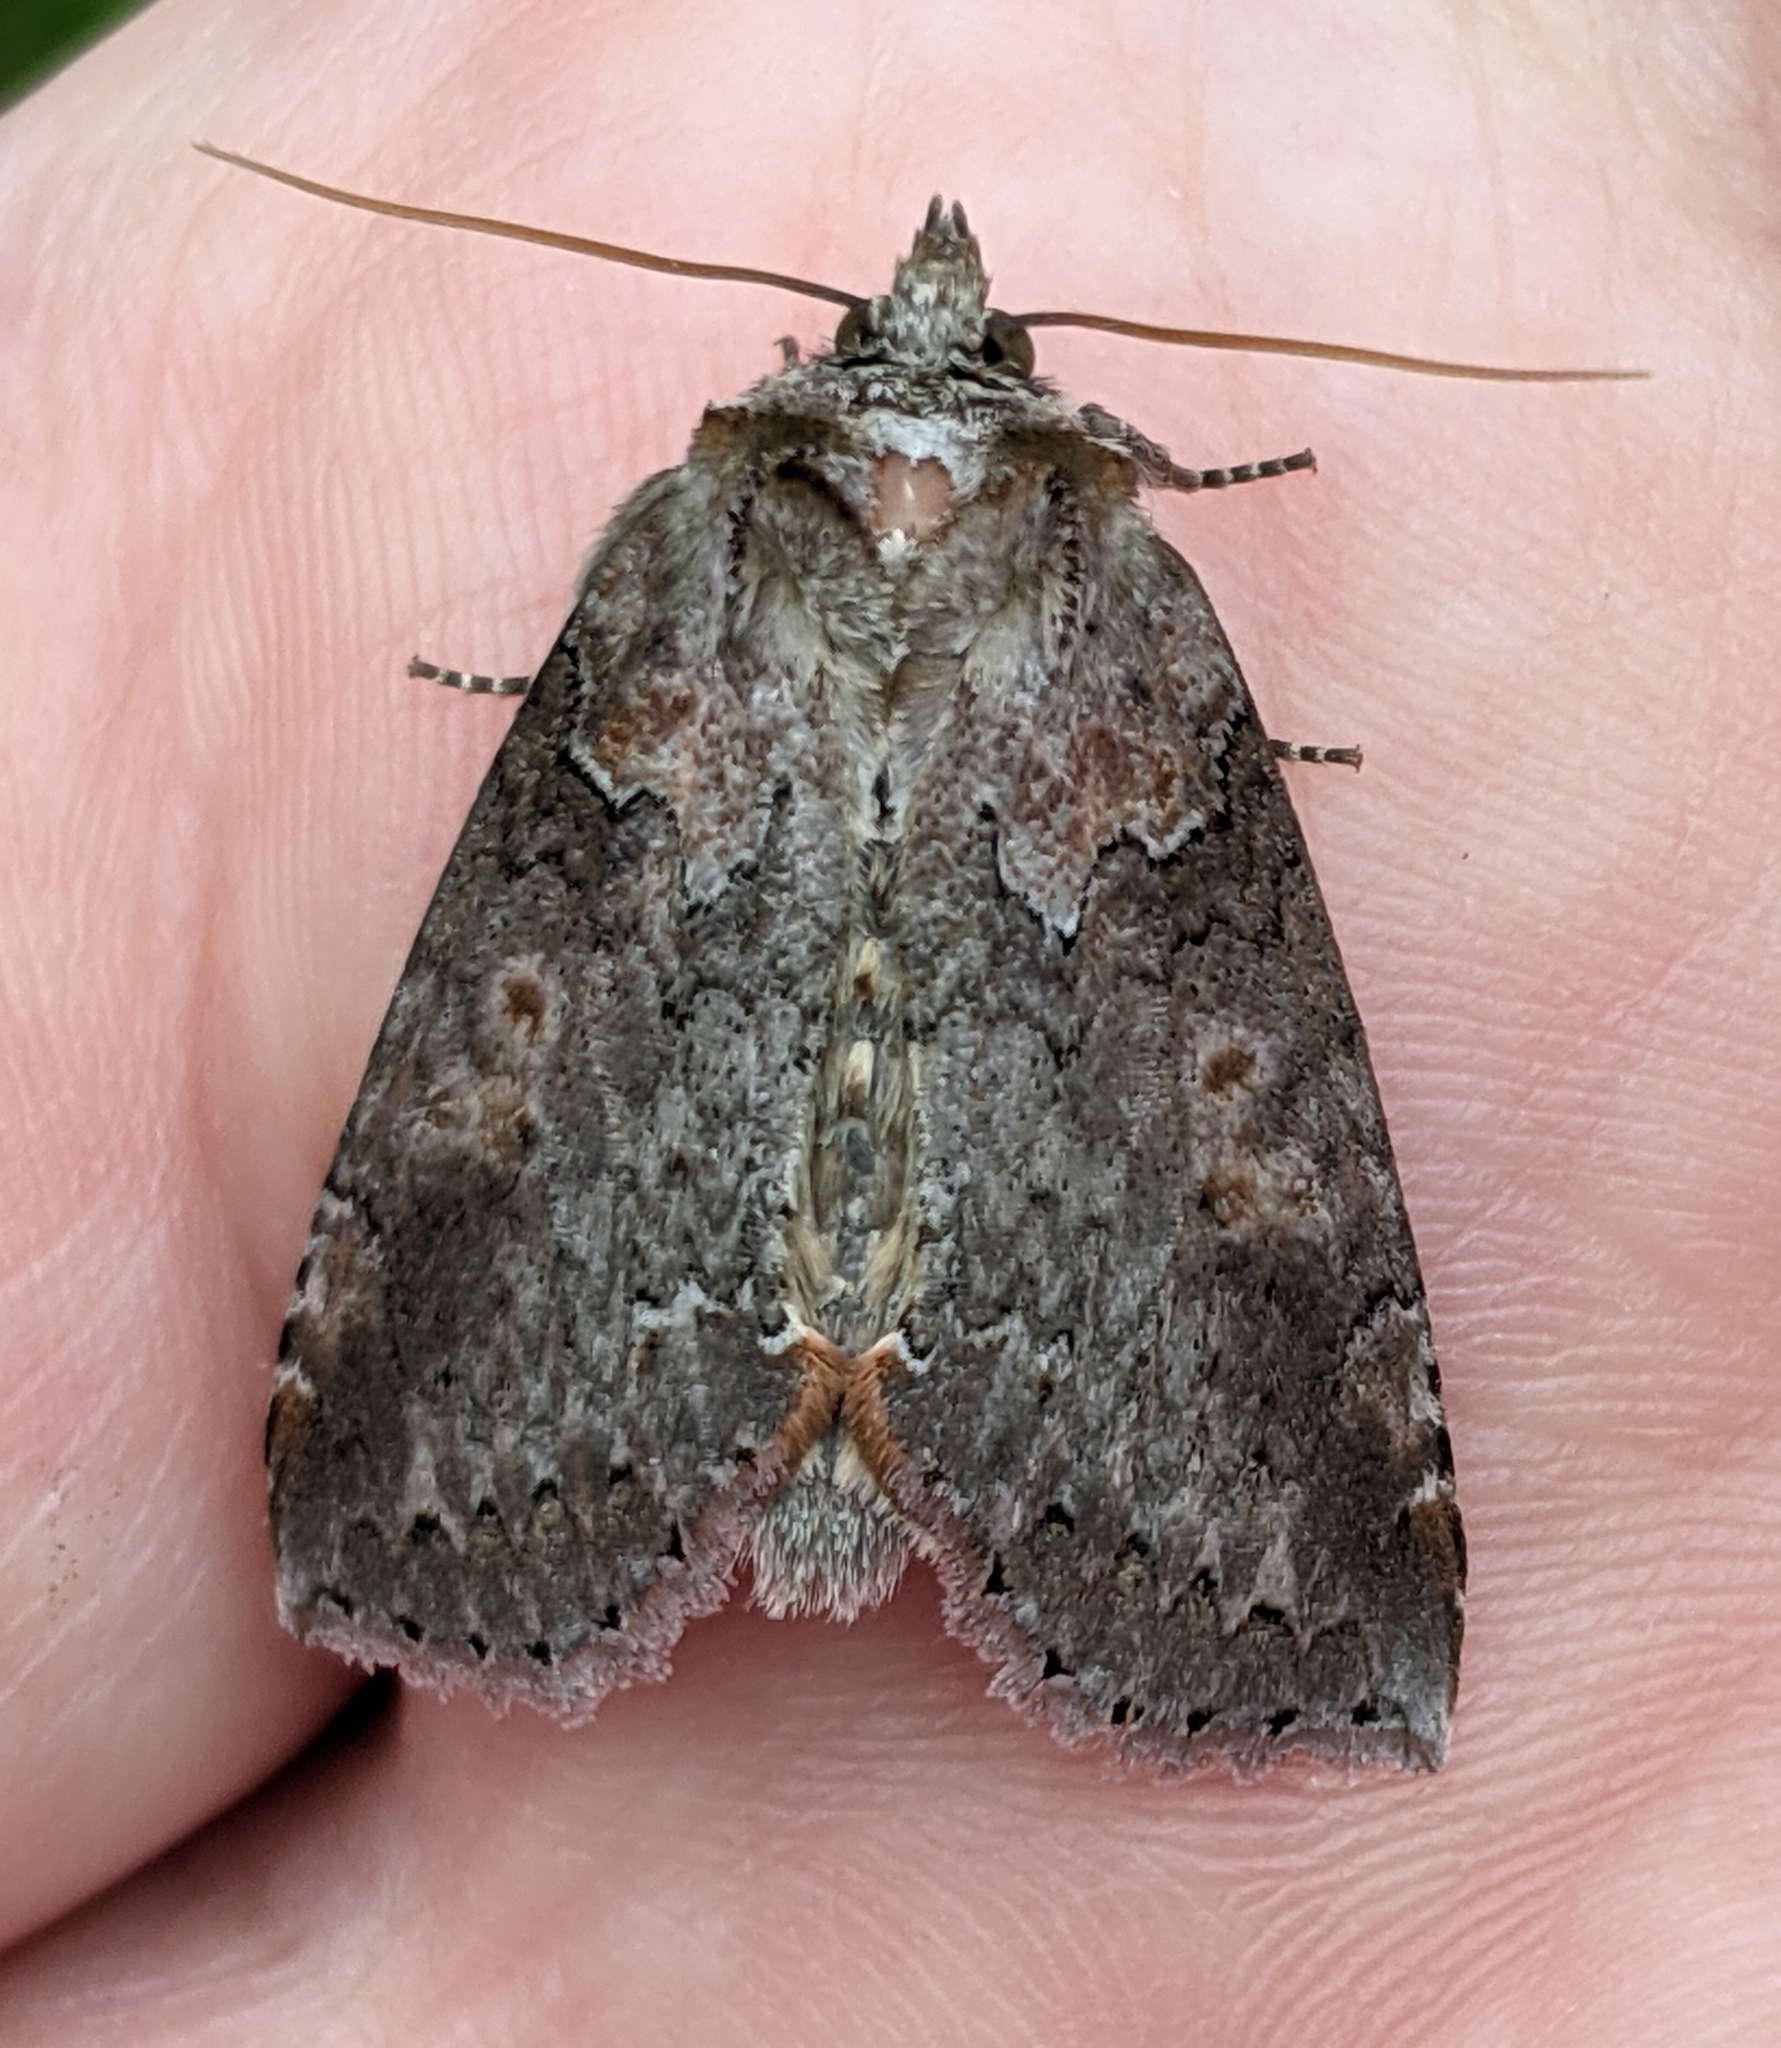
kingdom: Animalia
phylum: Arthropoda
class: Insecta
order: Lepidoptera
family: Drepanidae
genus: Pseudothyatira
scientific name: Pseudothyatira cymatophoroides
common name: Tufted thyatirid moth
